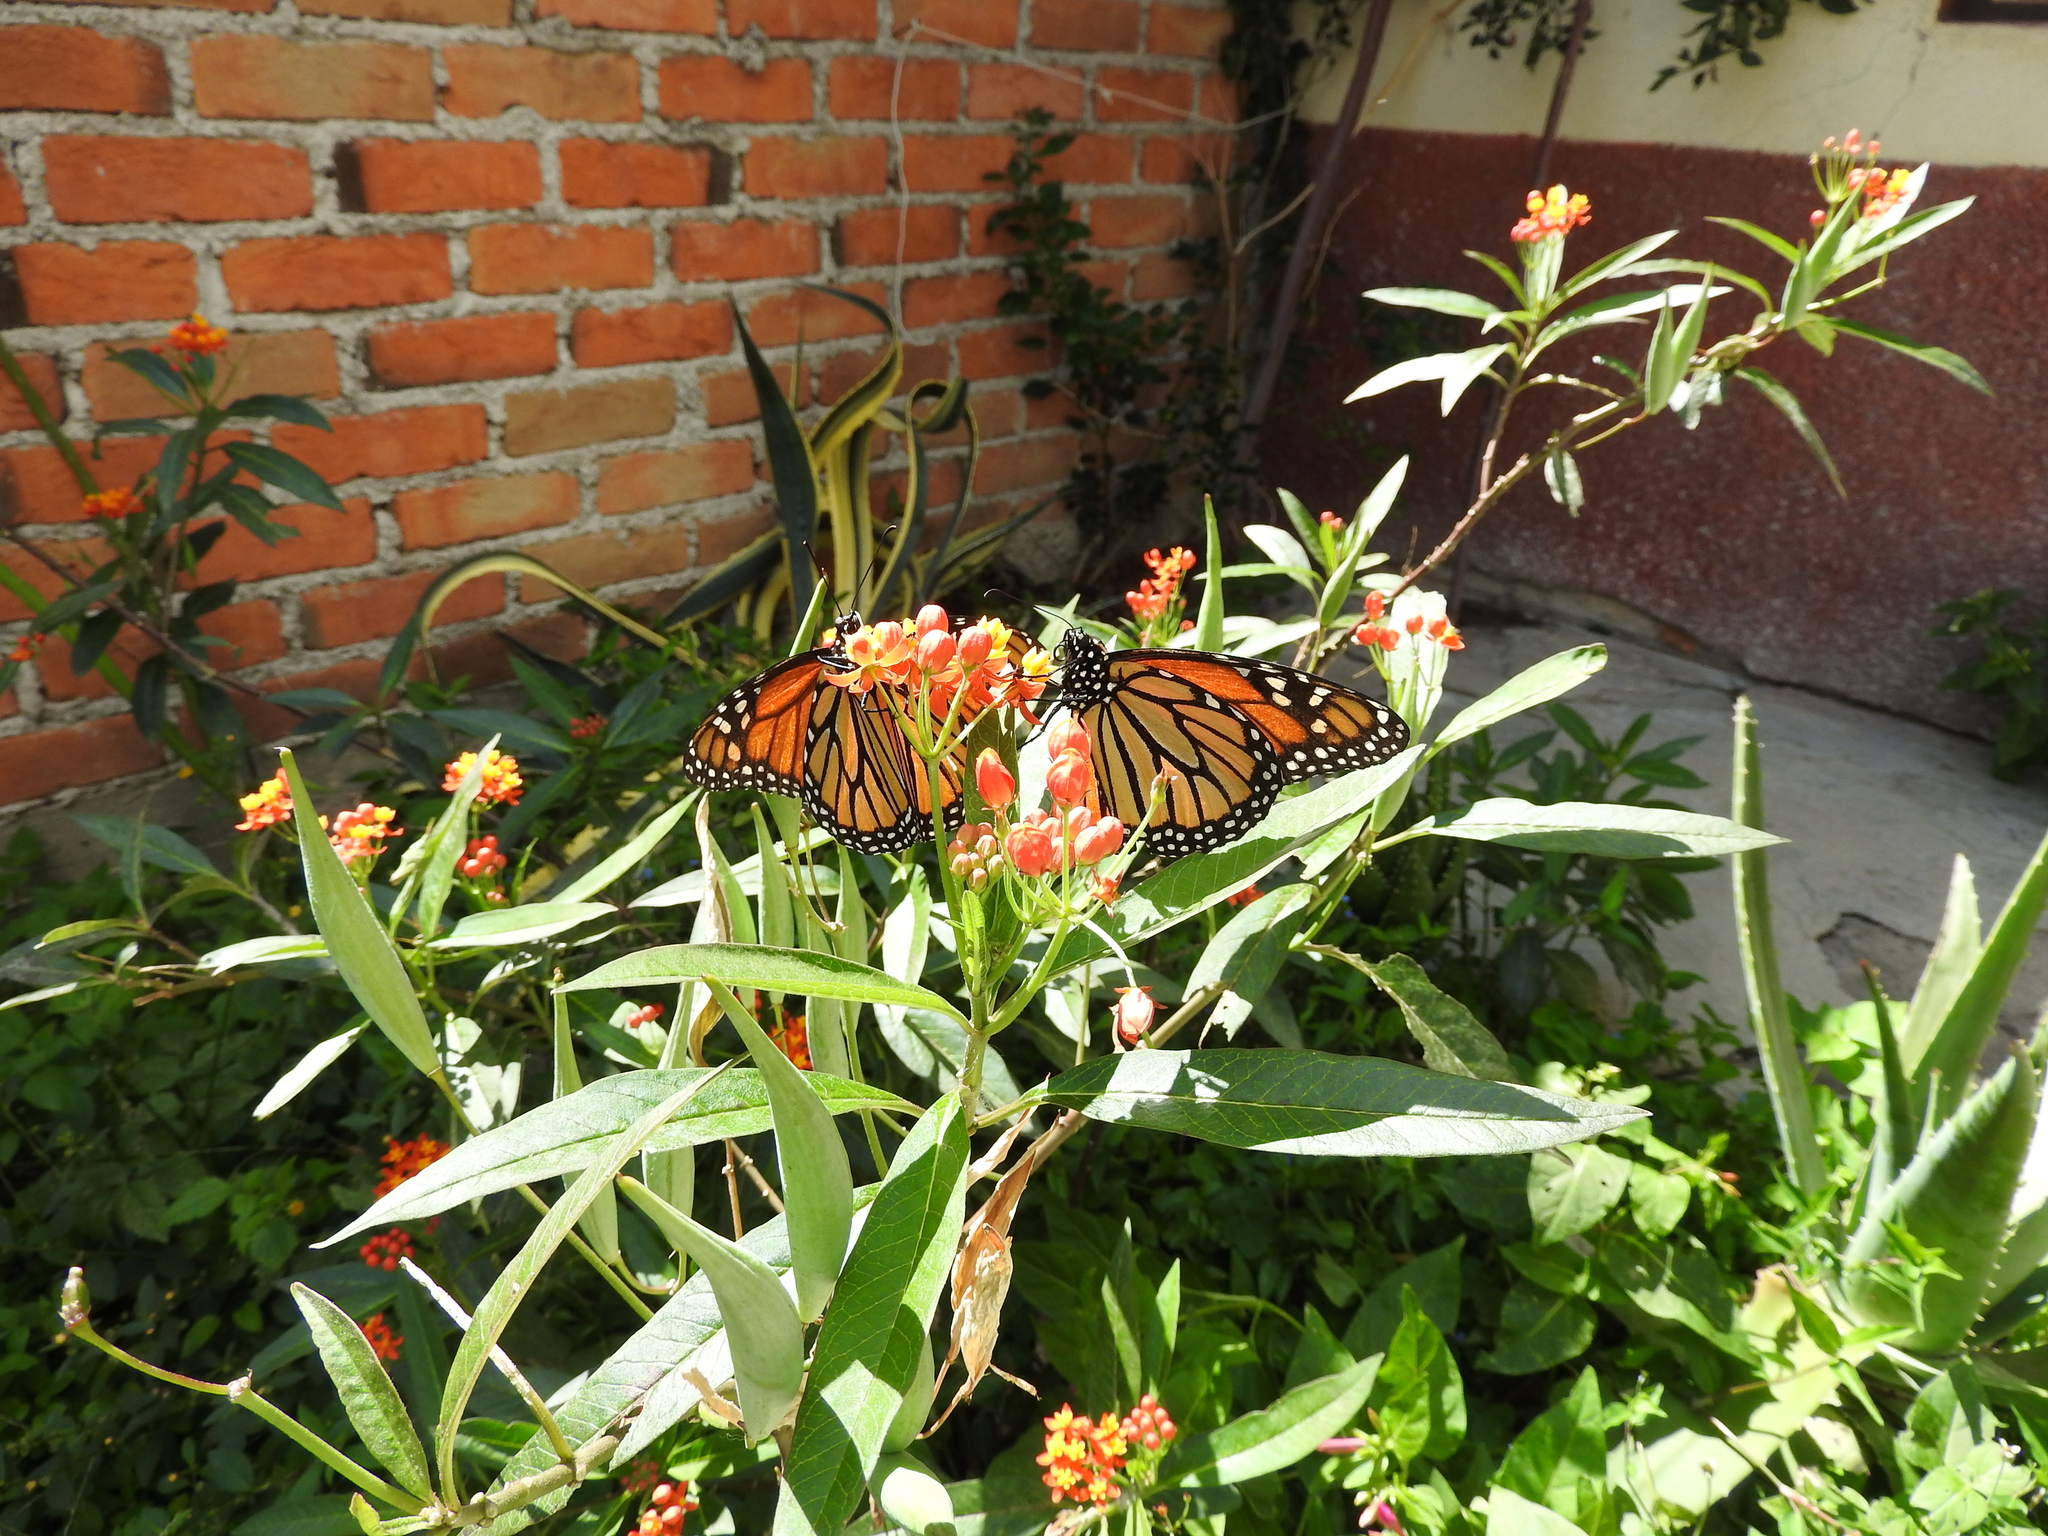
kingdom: Animalia
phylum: Arthropoda
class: Insecta
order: Lepidoptera
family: Nymphalidae
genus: Danaus
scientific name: Danaus plexippus
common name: Monarch
